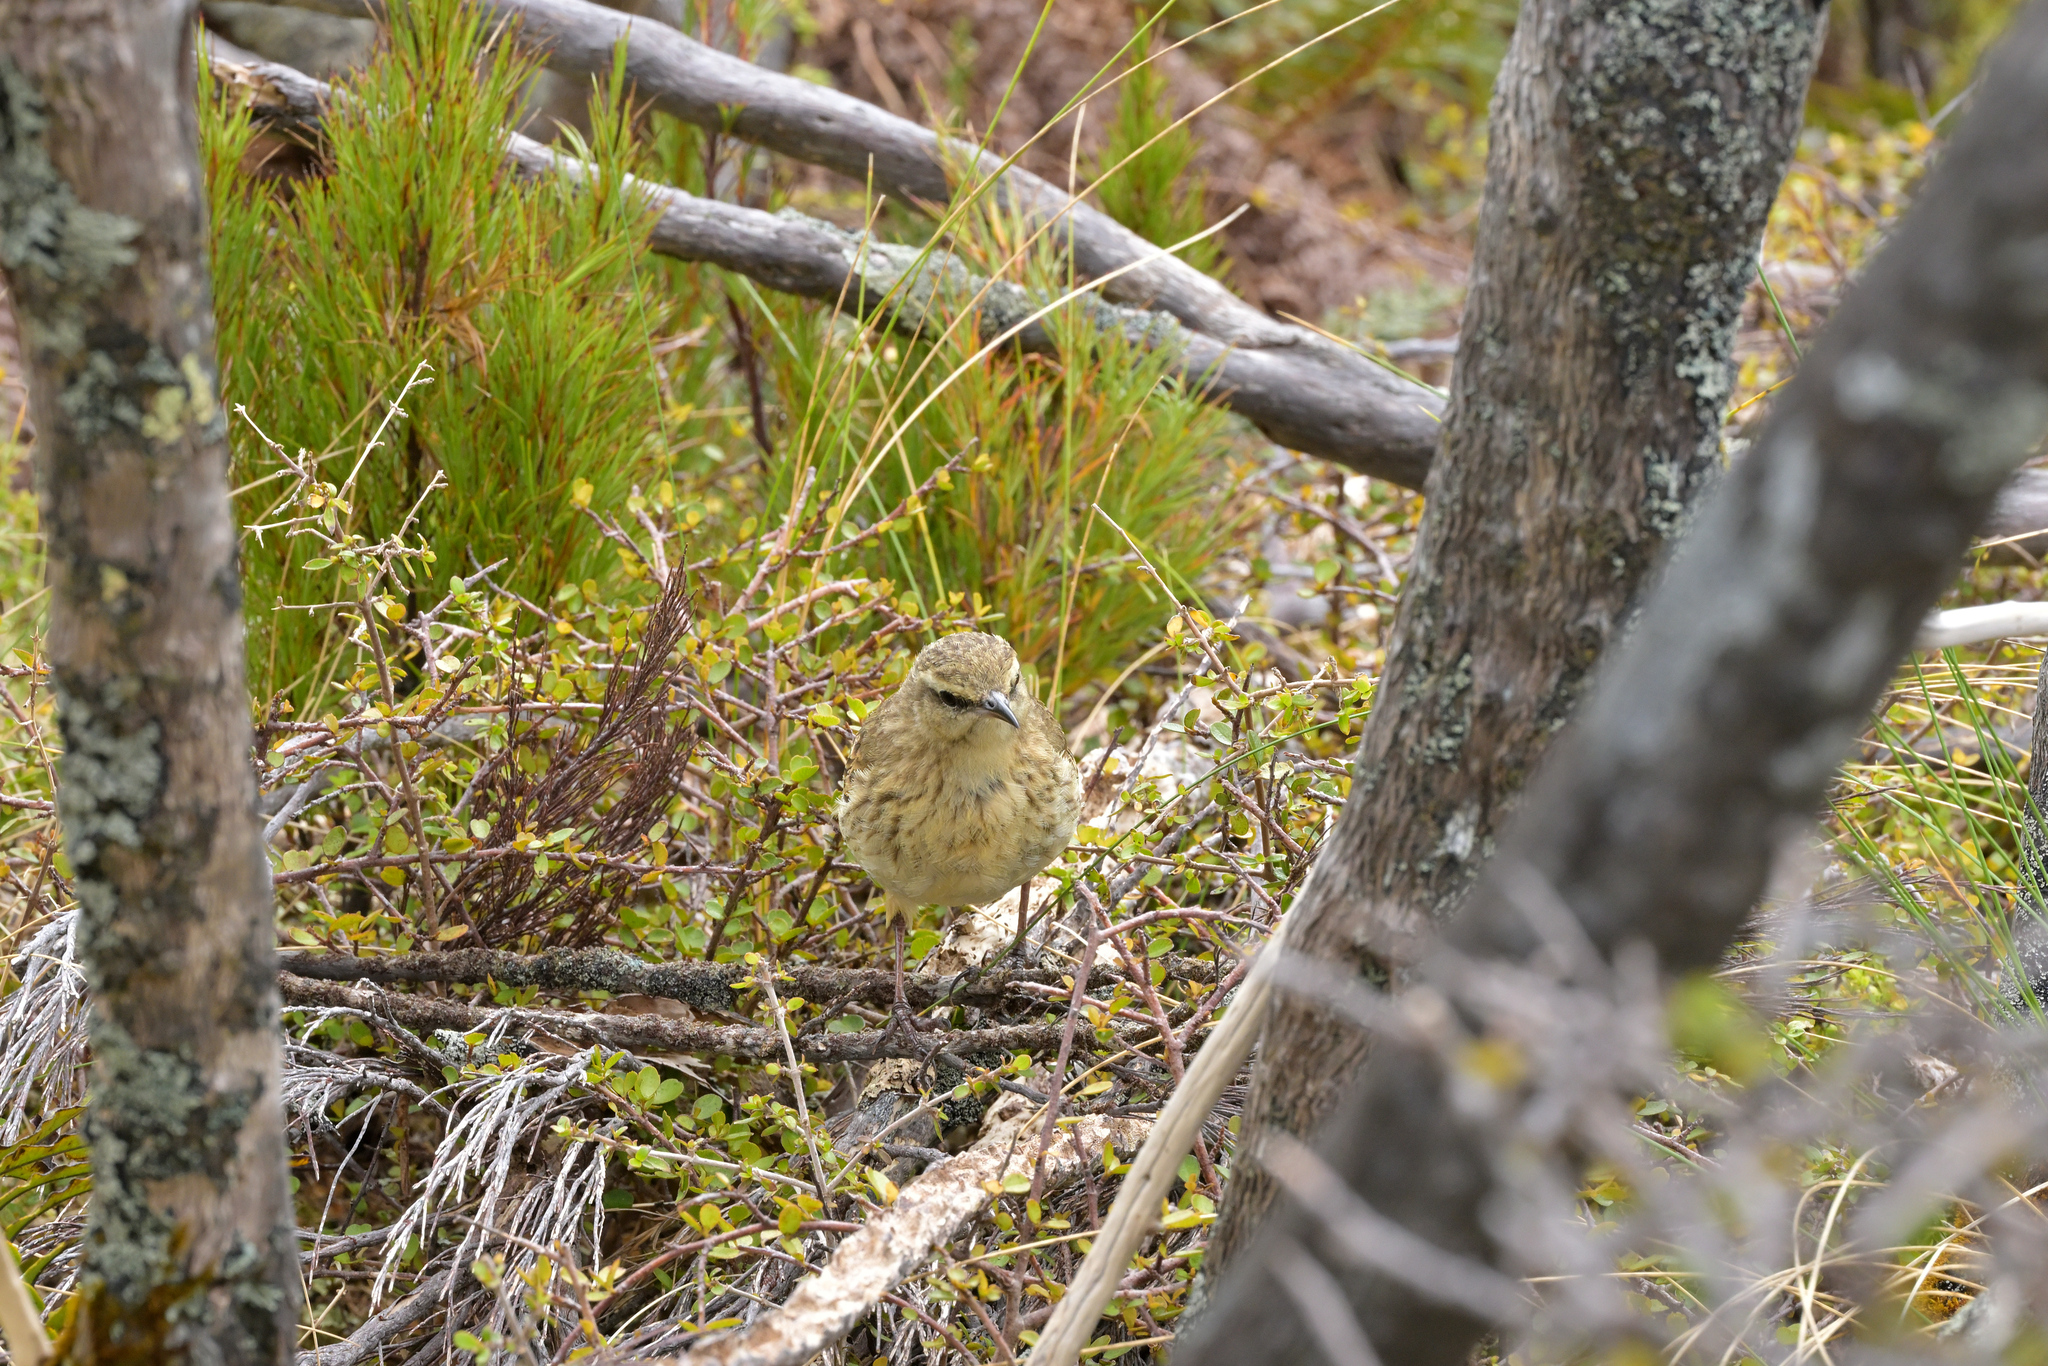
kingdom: Animalia
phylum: Chordata
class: Aves
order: Passeriformes
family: Motacillidae
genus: Anthus
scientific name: Anthus novaeseelandiae
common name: New zealand pipit
